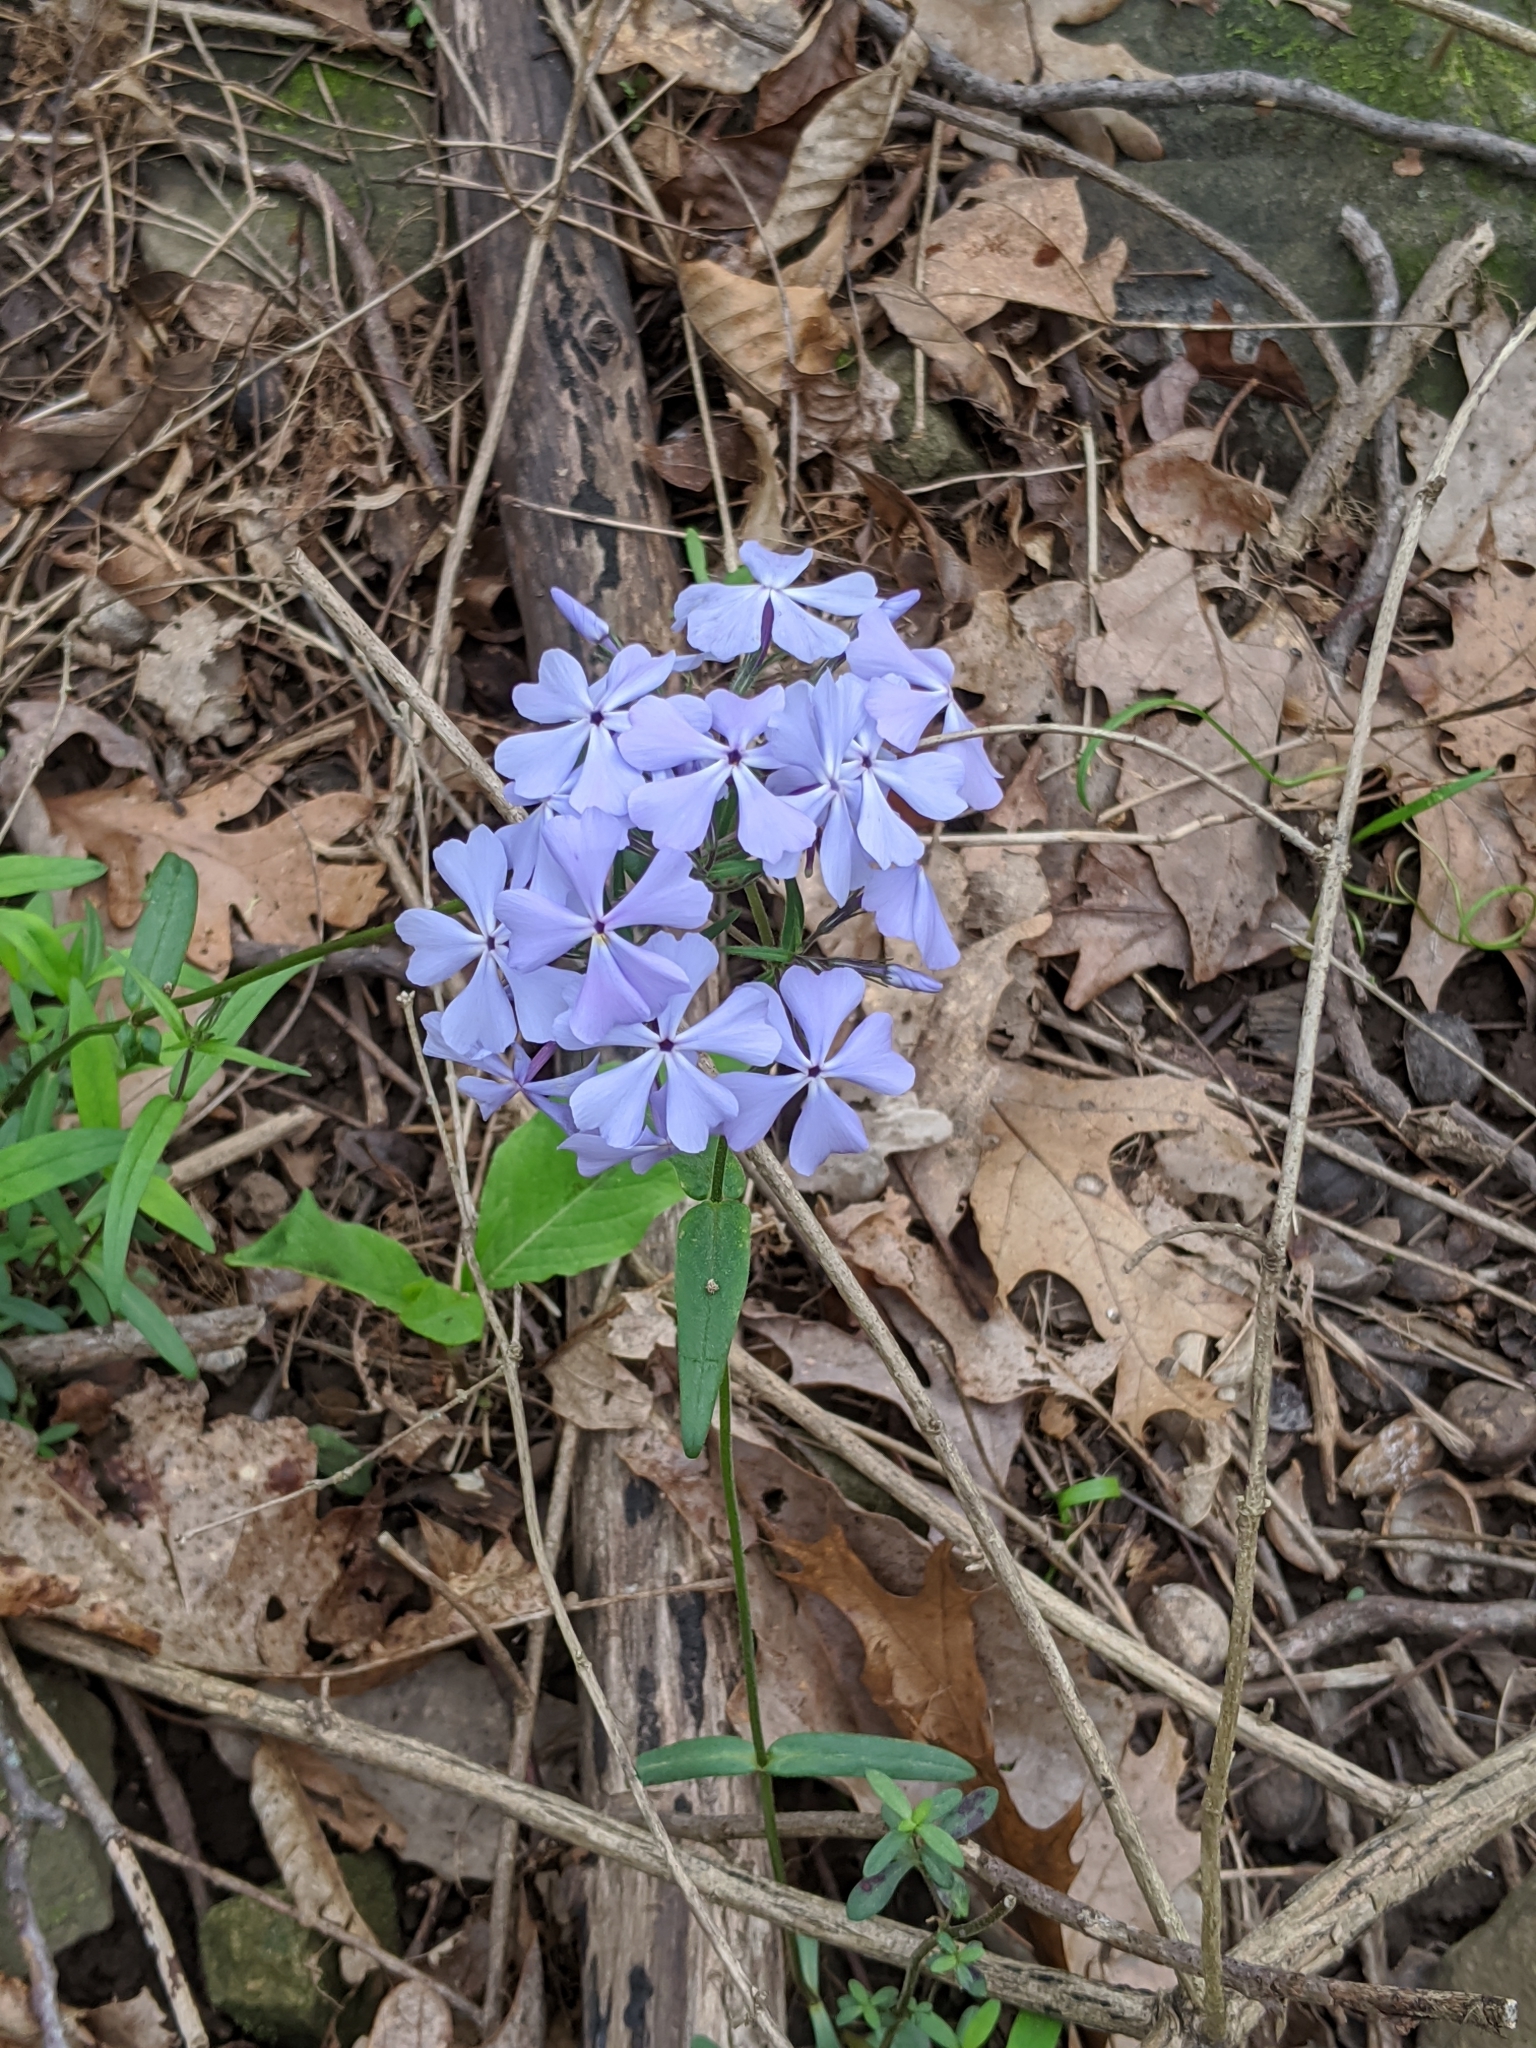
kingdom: Plantae
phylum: Tracheophyta
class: Magnoliopsida
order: Ericales
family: Polemoniaceae
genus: Phlox
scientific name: Phlox divaricata
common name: Blue phlox
